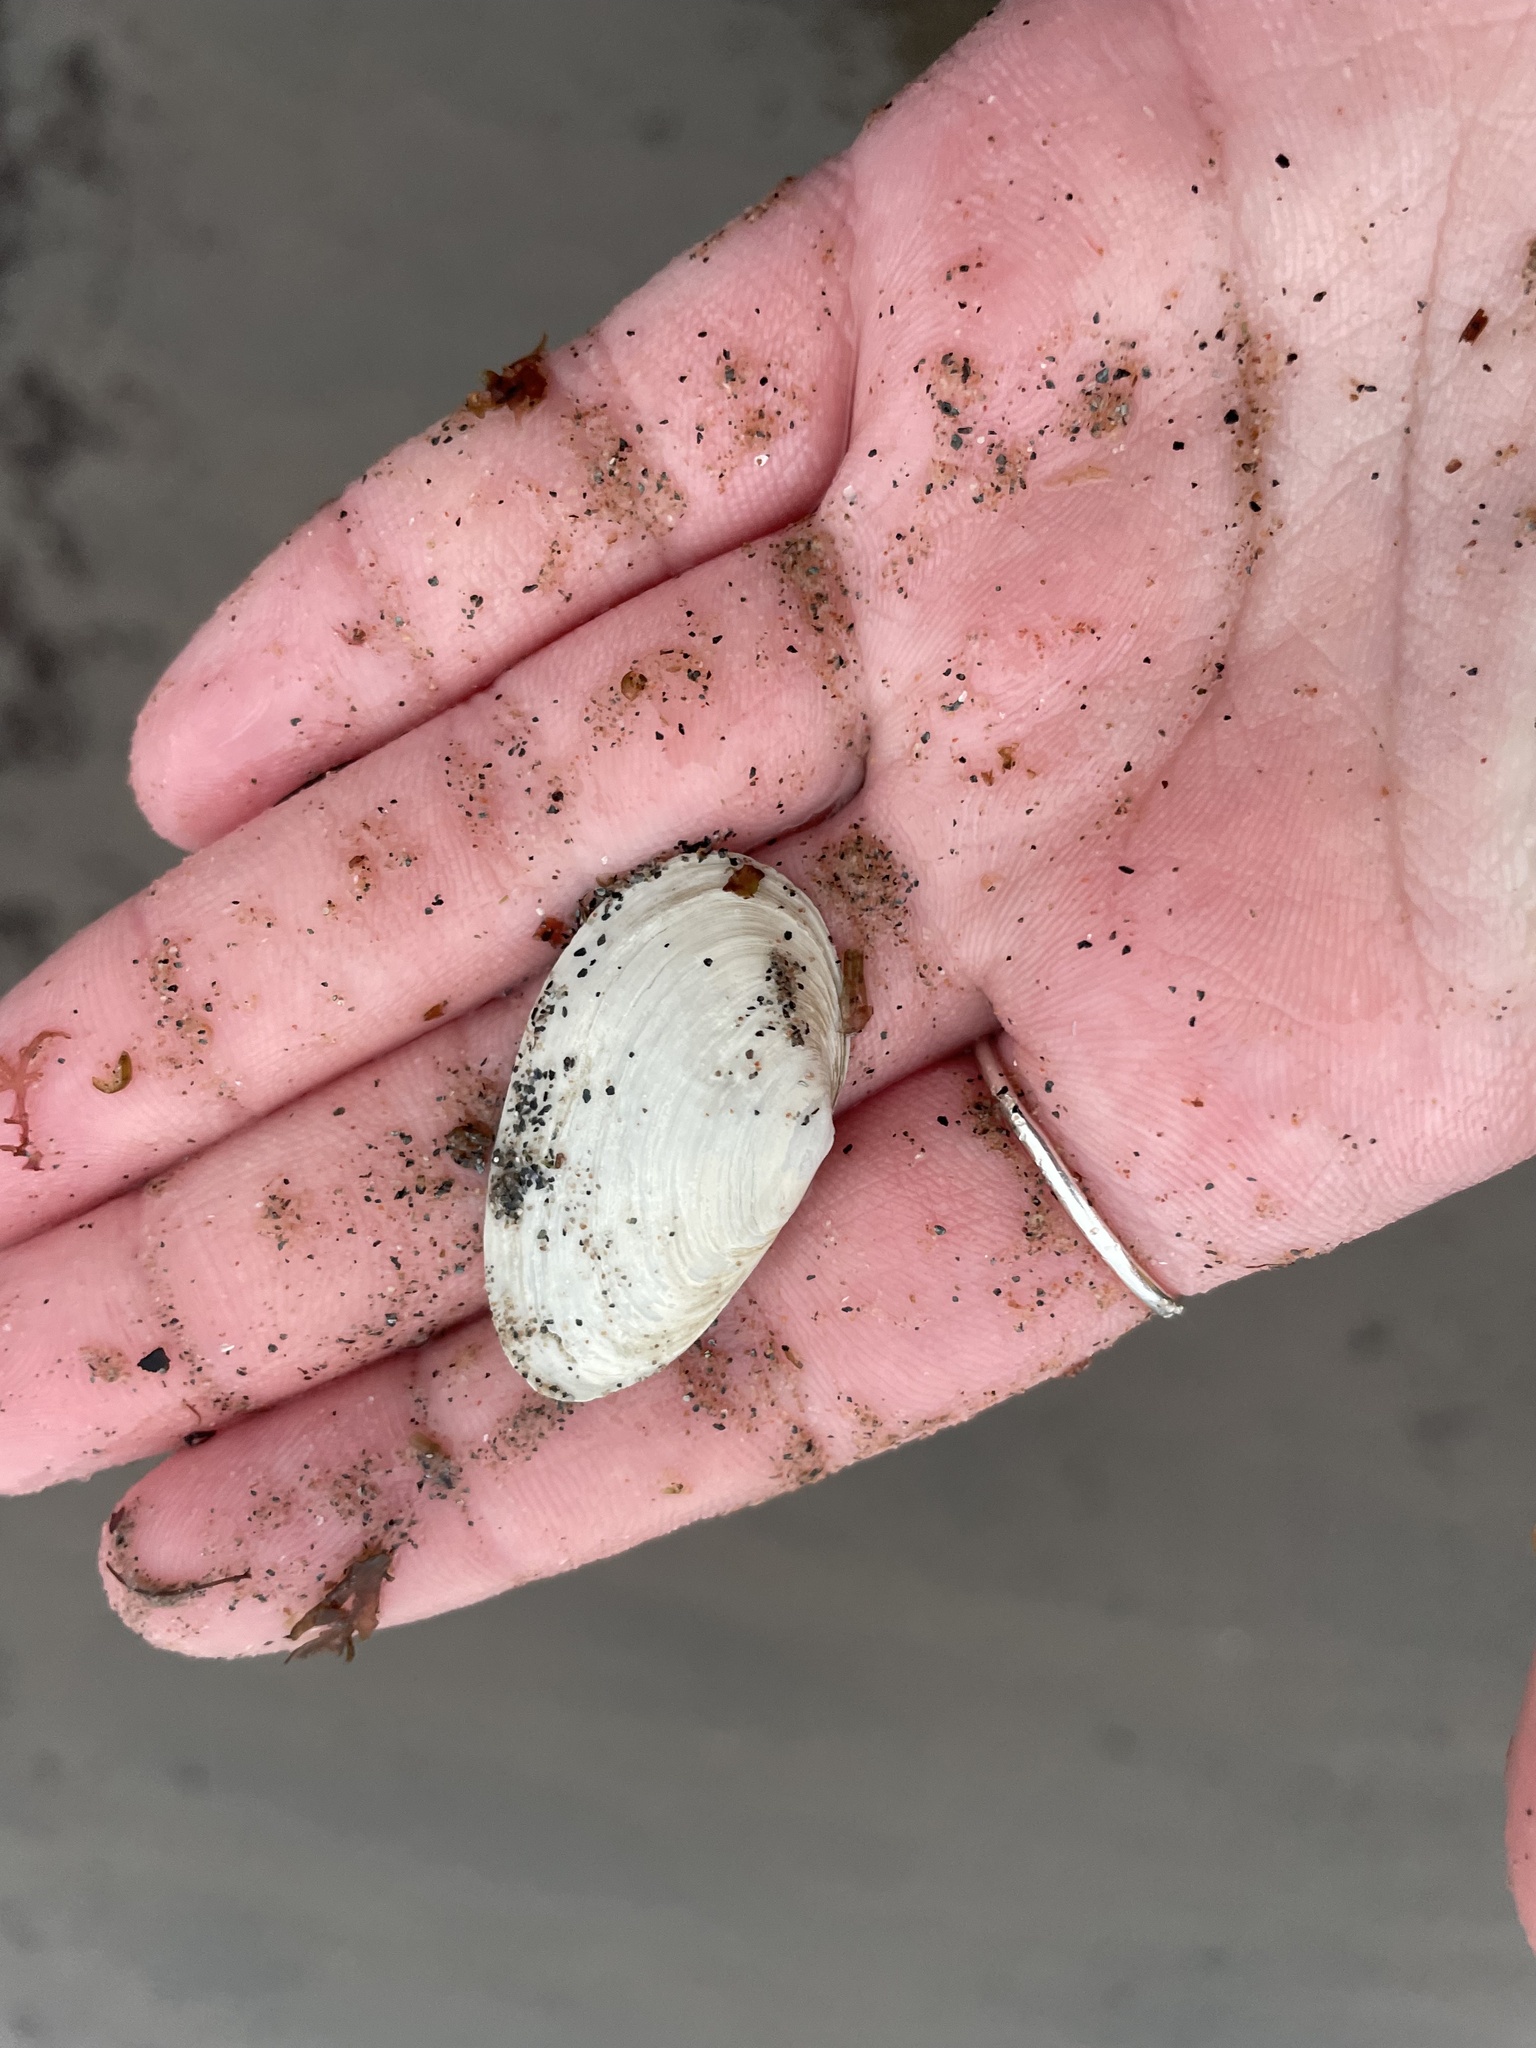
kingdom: Animalia
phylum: Mollusca
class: Bivalvia
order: Myida
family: Myidae
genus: Mya
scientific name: Mya arenaria
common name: Soft-shelled clam
